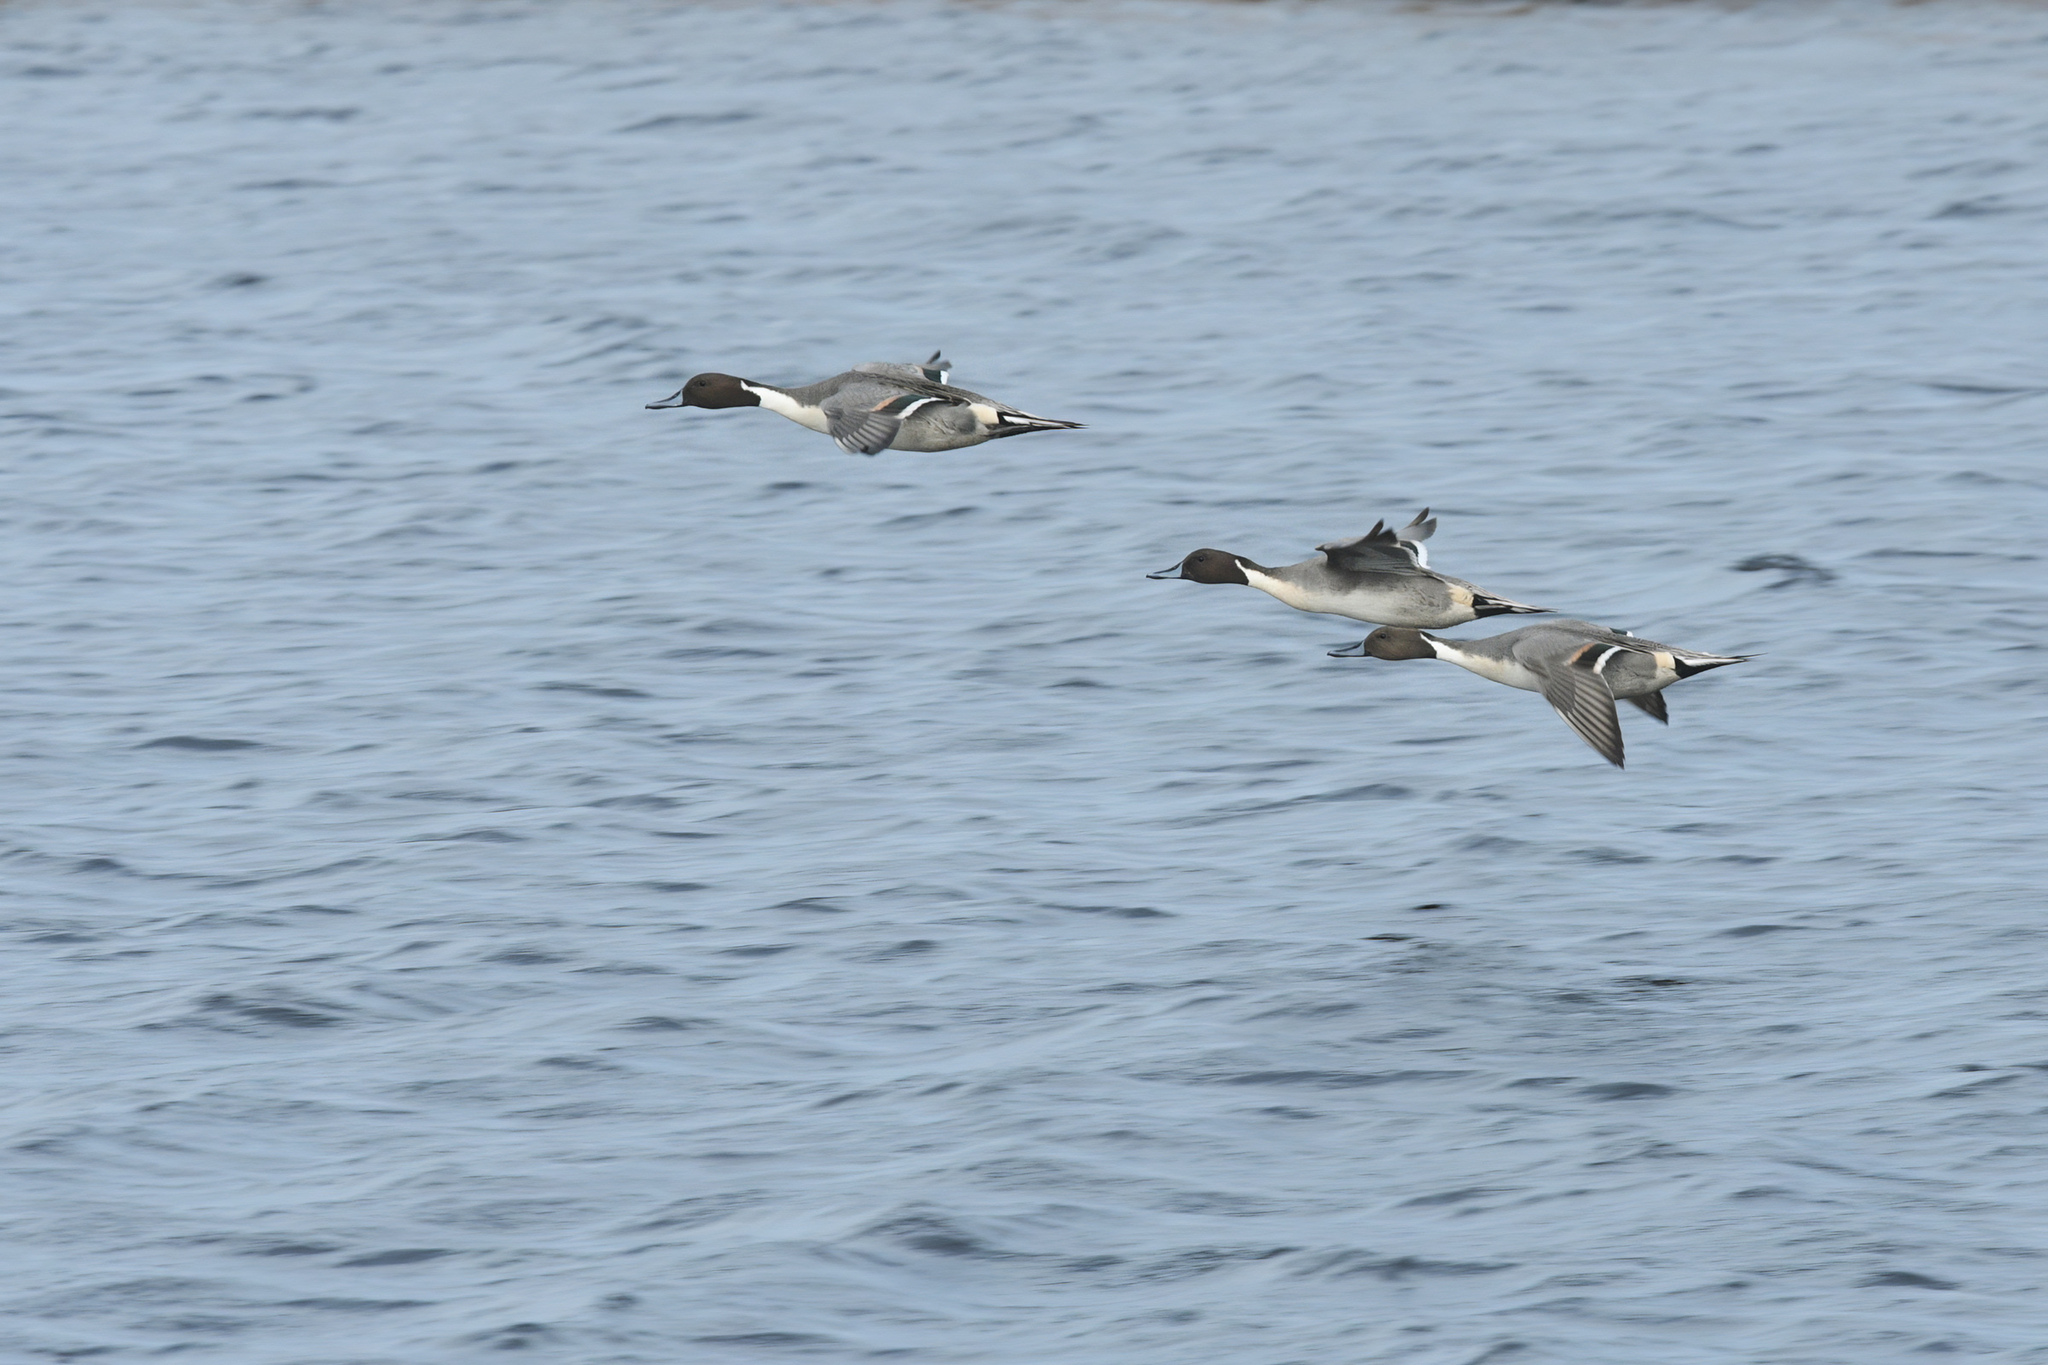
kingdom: Animalia
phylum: Chordata
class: Aves
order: Anseriformes
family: Anatidae
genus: Anas
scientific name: Anas acuta
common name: Northern pintail
